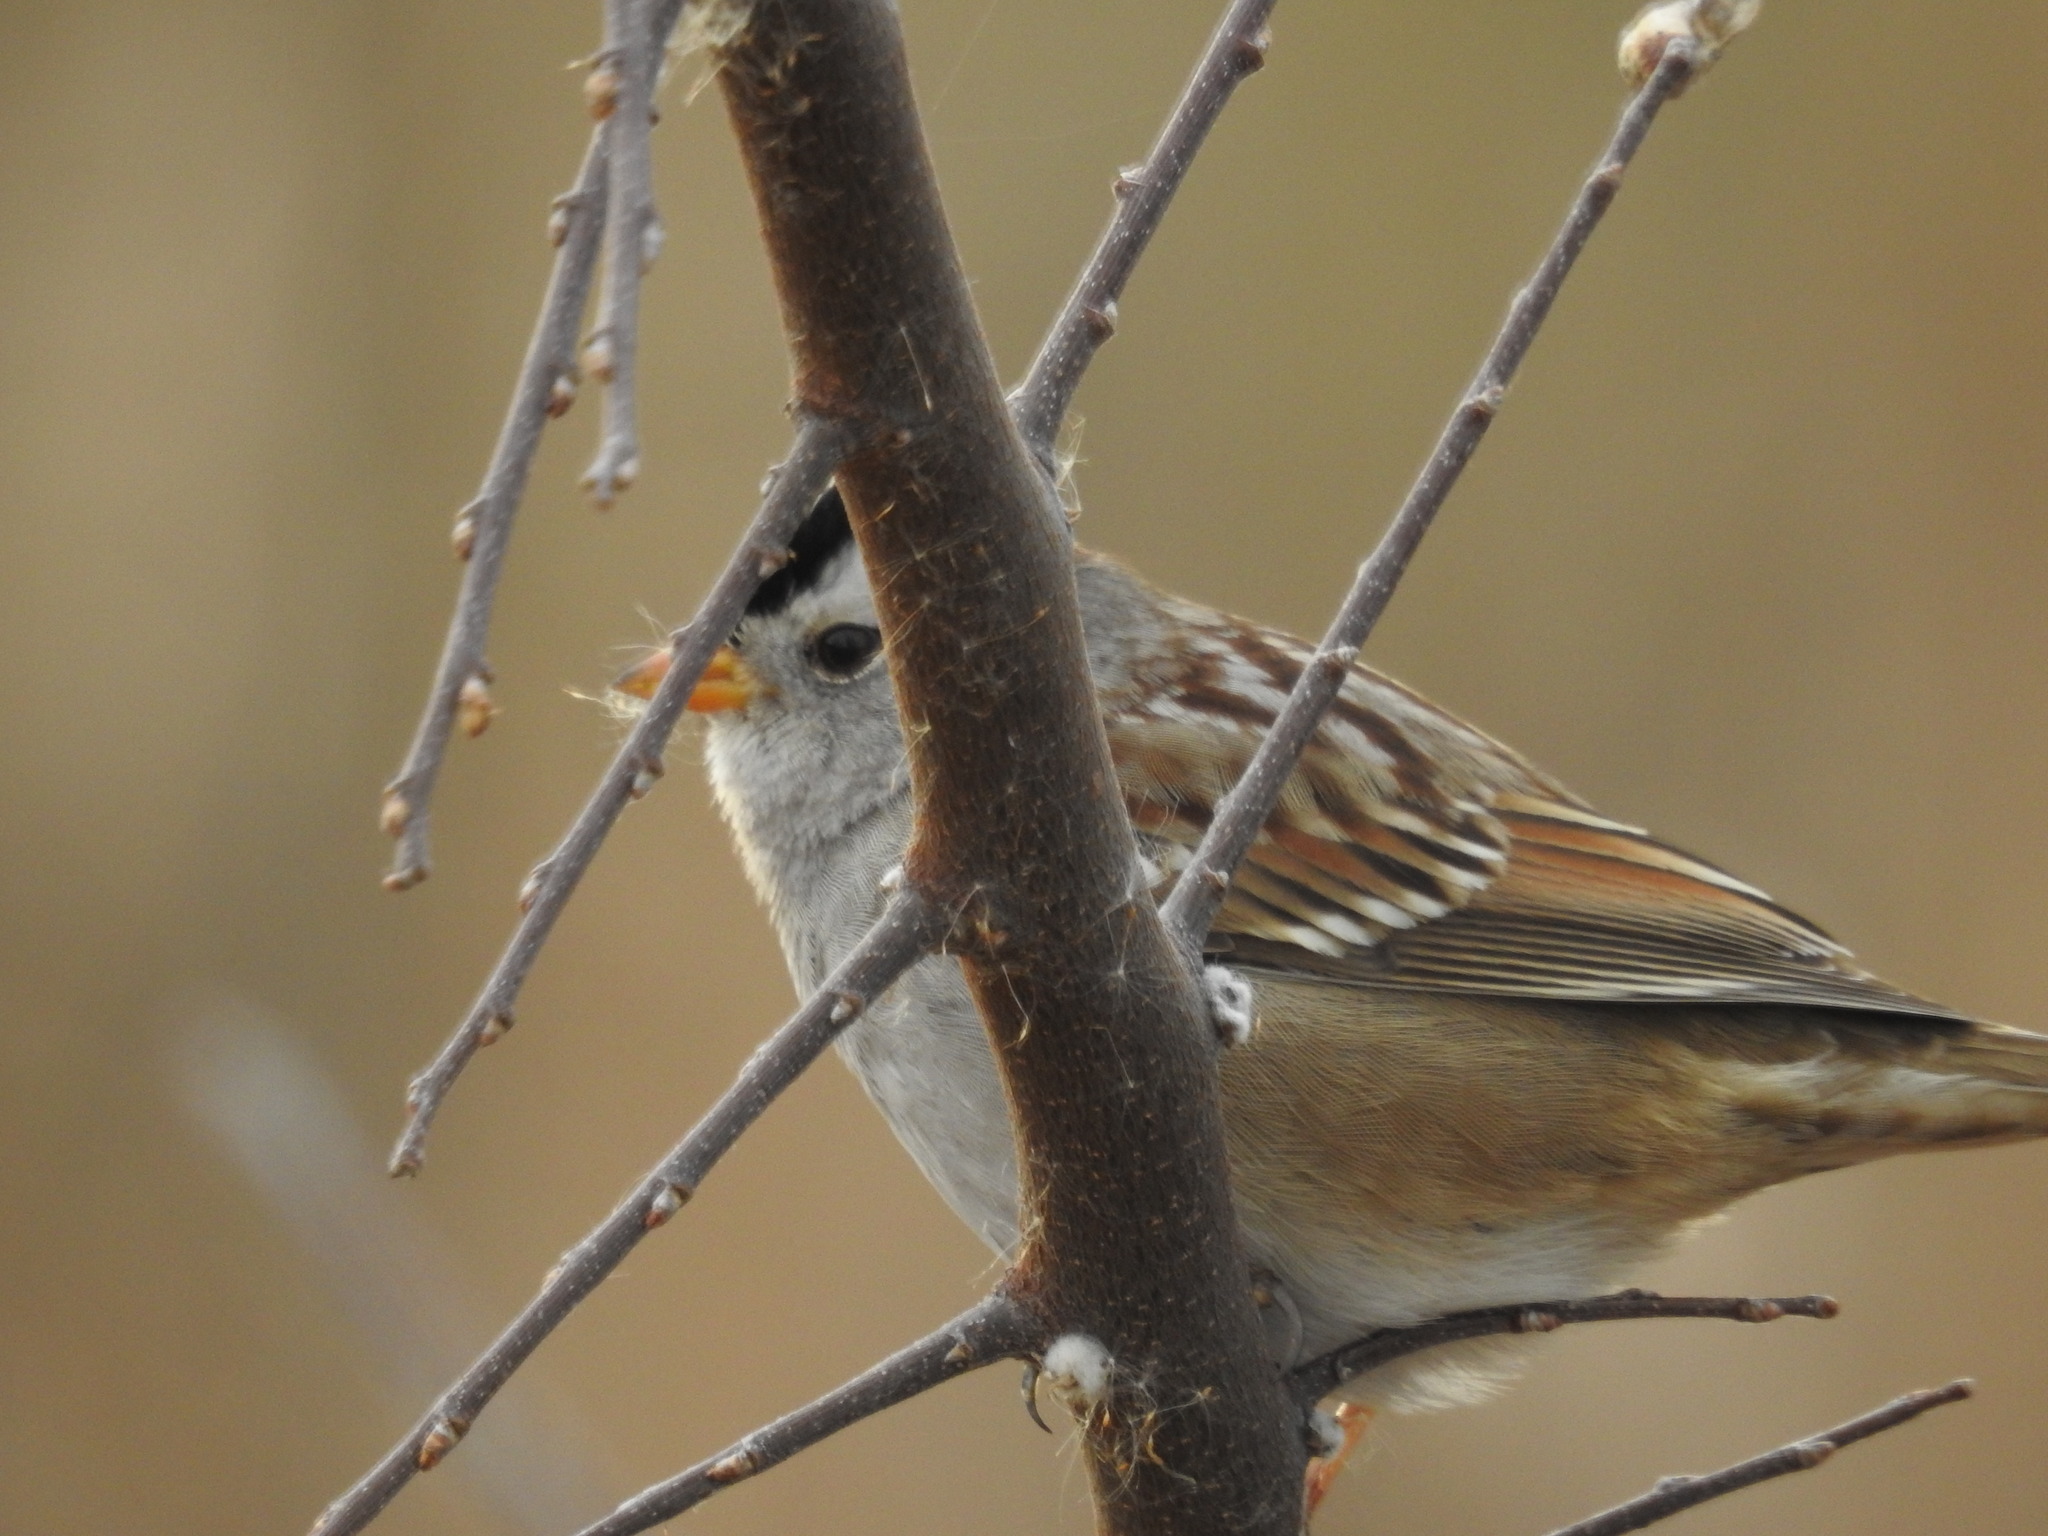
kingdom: Animalia
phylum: Chordata
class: Aves
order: Passeriformes
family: Passerellidae
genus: Zonotrichia
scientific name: Zonotrichia leucophrys
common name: White-crowned sparrow
